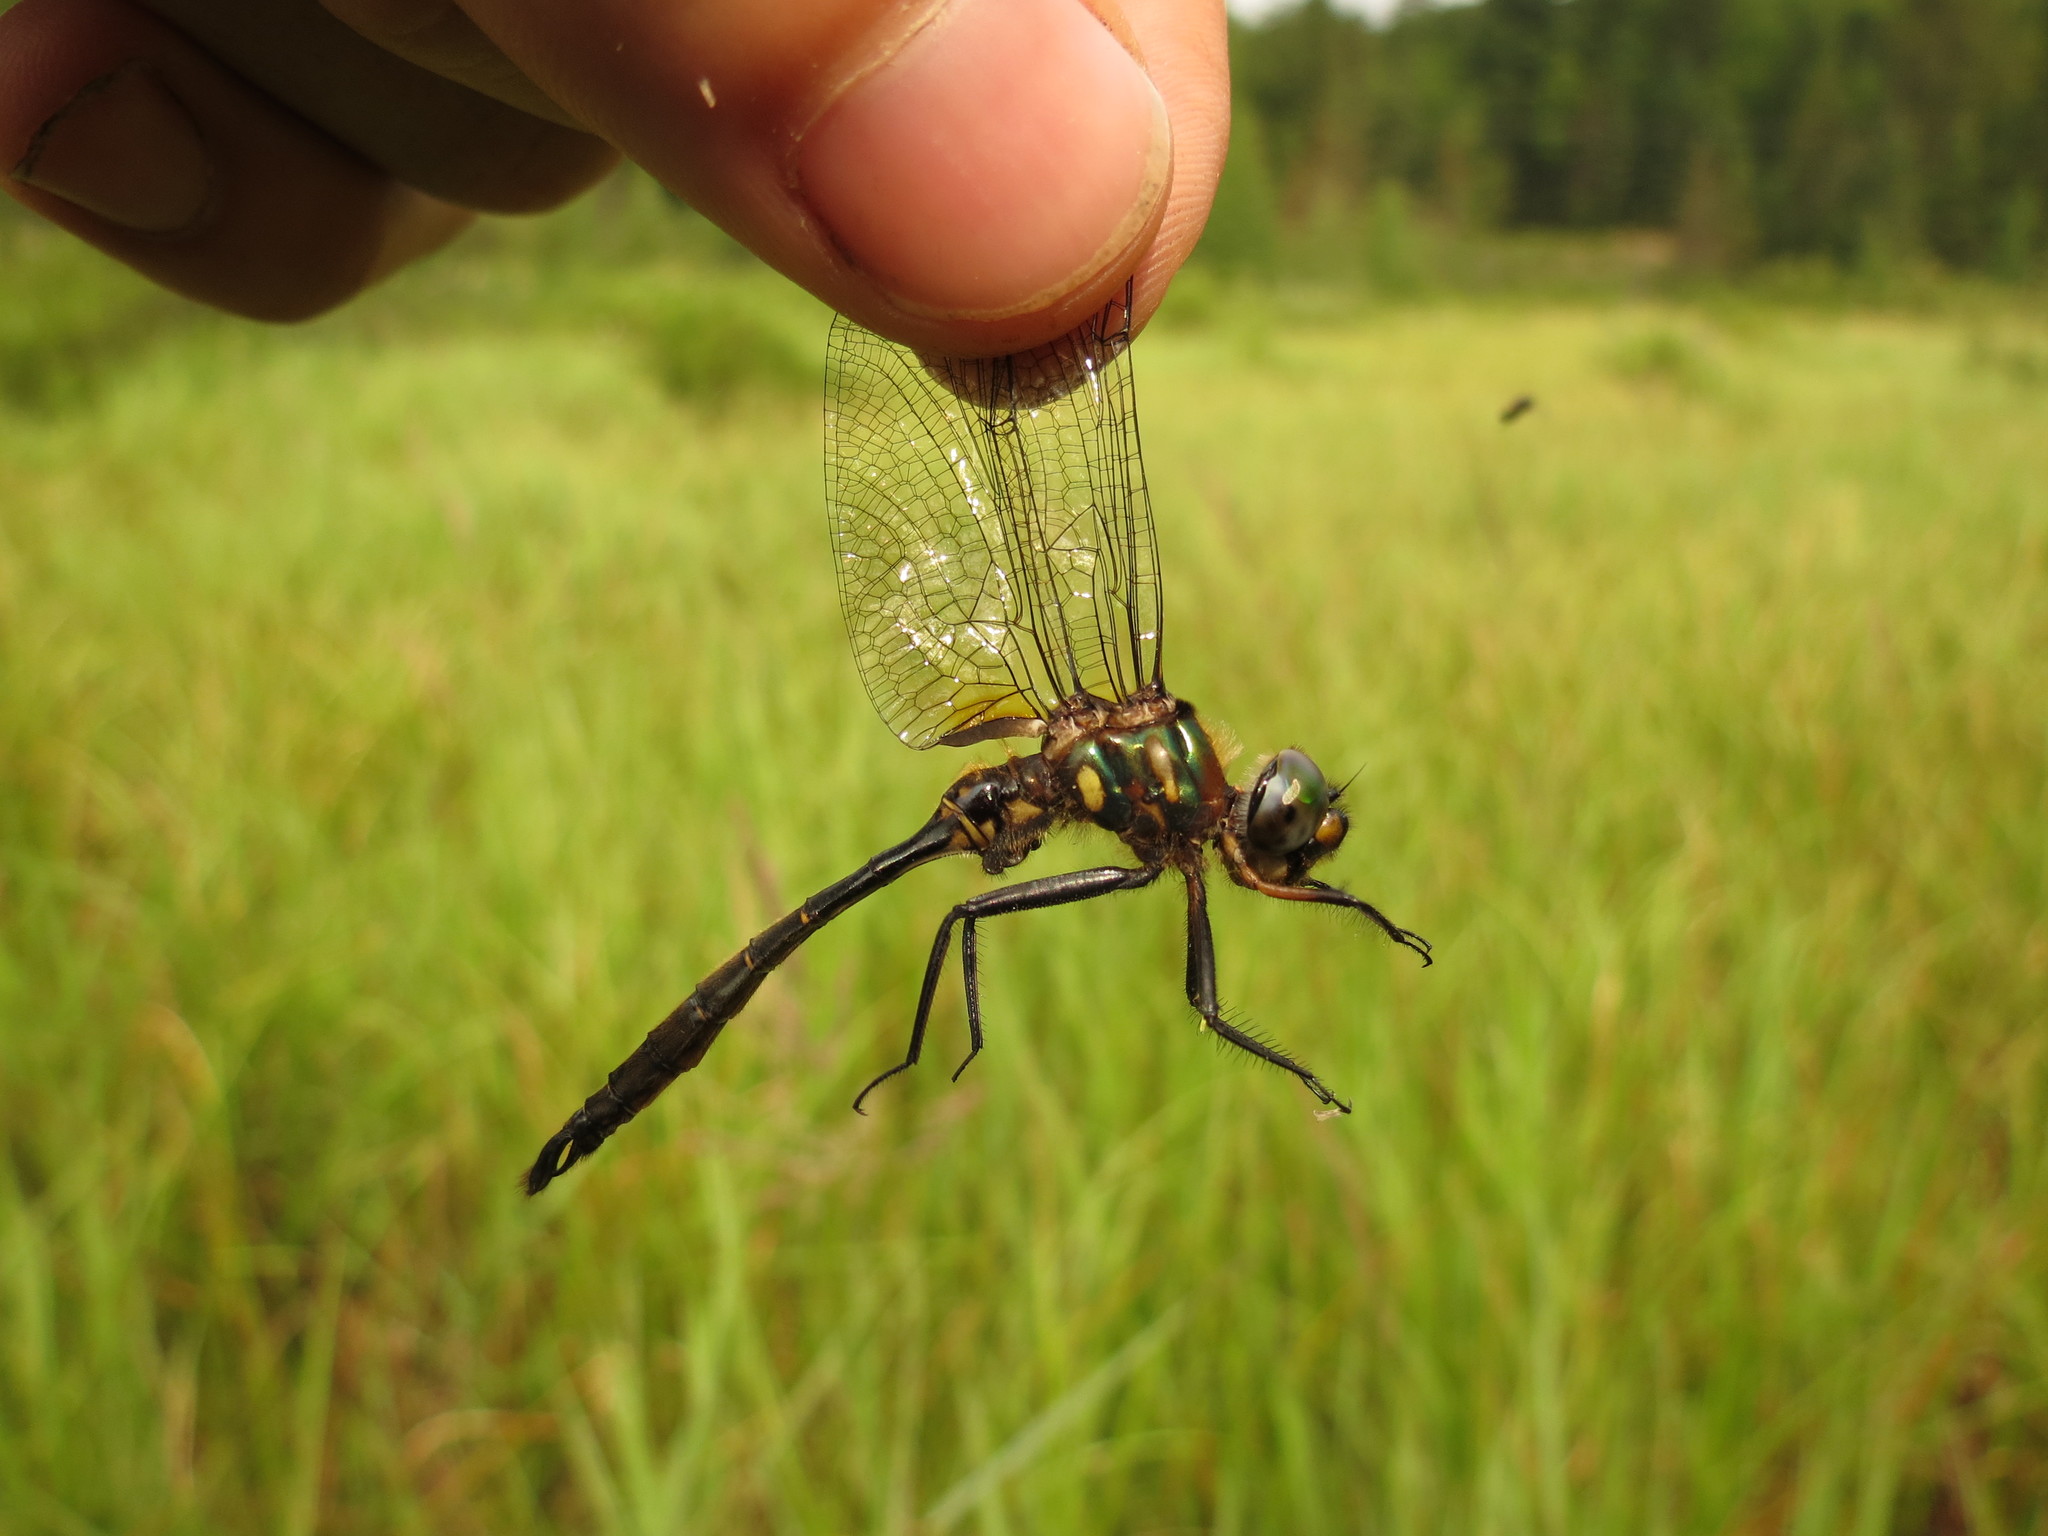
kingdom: Animalia
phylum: Arthropoda
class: Insecta
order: Odonata
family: Corduliidae
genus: Somatochlora
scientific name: Somatochlora walshii
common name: Brush-tipped emerald
